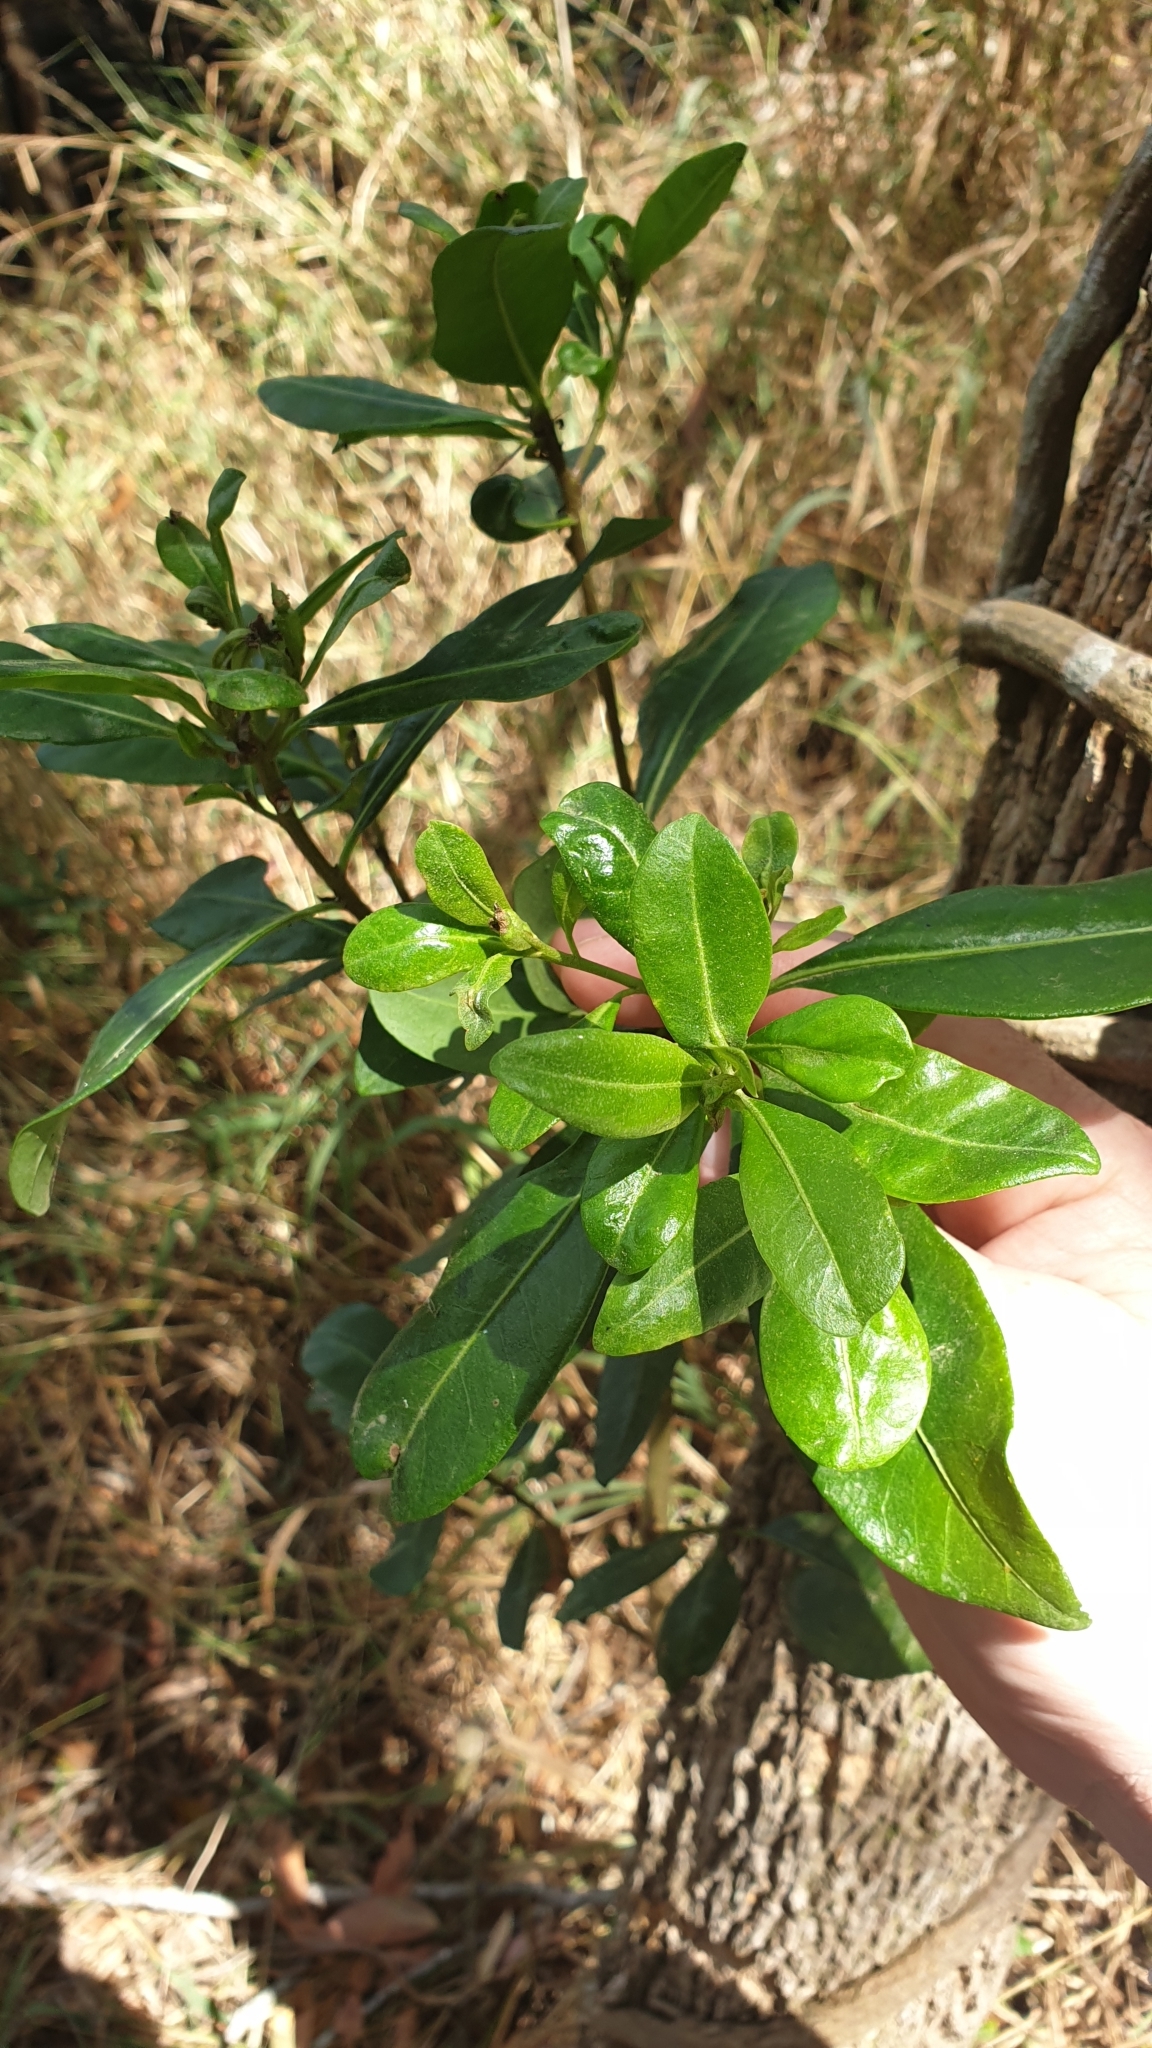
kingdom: Plantae
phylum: Tracheophyta
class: Magnoliopsida
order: Solanales
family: Solanaceae
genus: Duboisia
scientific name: Duboisia myoporoides
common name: Corkwoodtree
